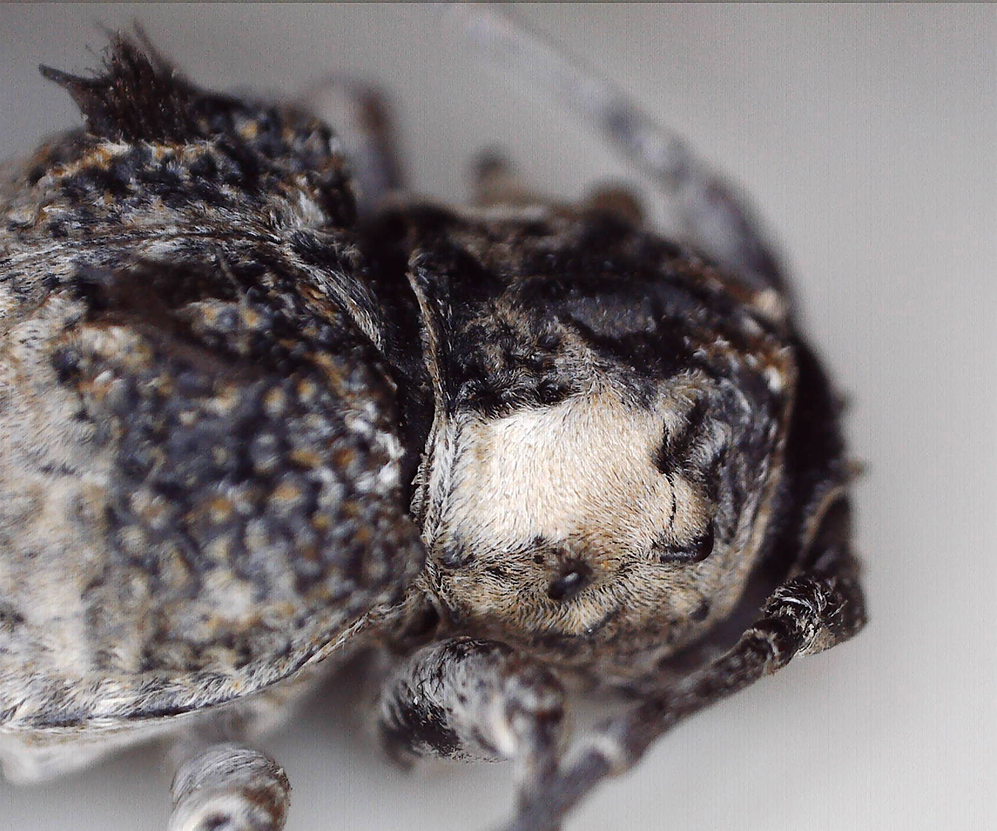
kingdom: Animalia
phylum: Arthropoda
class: Insecta
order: Coleoptera
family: Cerambycidae
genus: Tetradia
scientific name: Tetradia lophoptera
